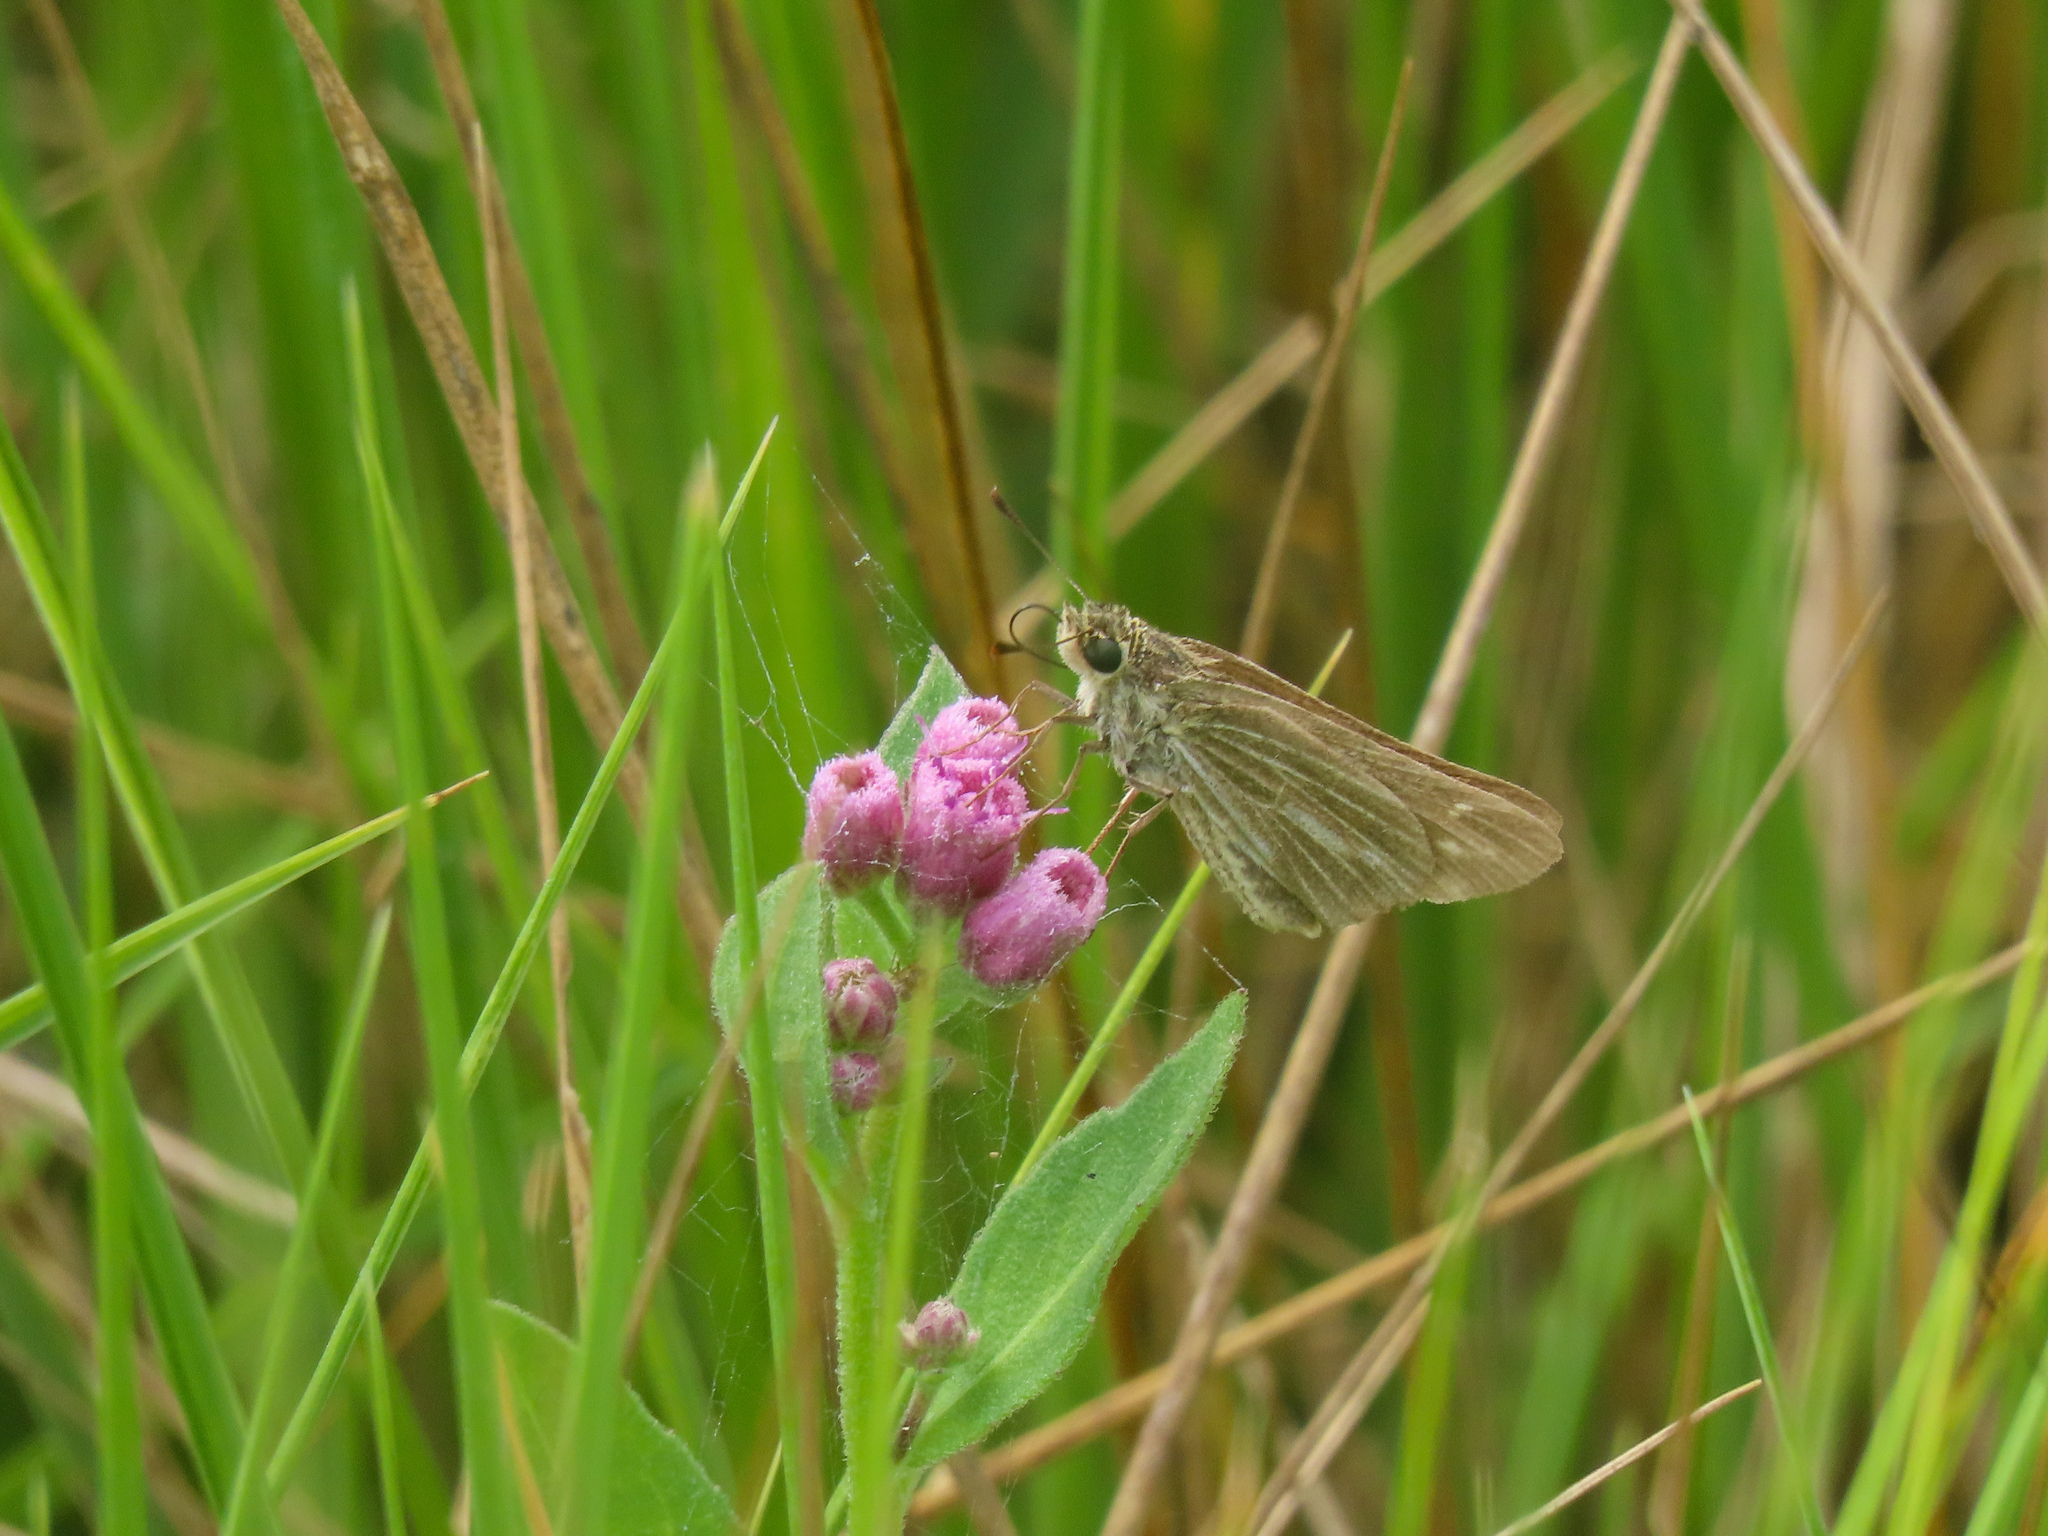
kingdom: Animalia
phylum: Arthropoda
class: Insecta
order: Lepidoptera
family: Hesperiidae
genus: Panoquina
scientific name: Panoquina panoquin
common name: Salt marsh skipper
